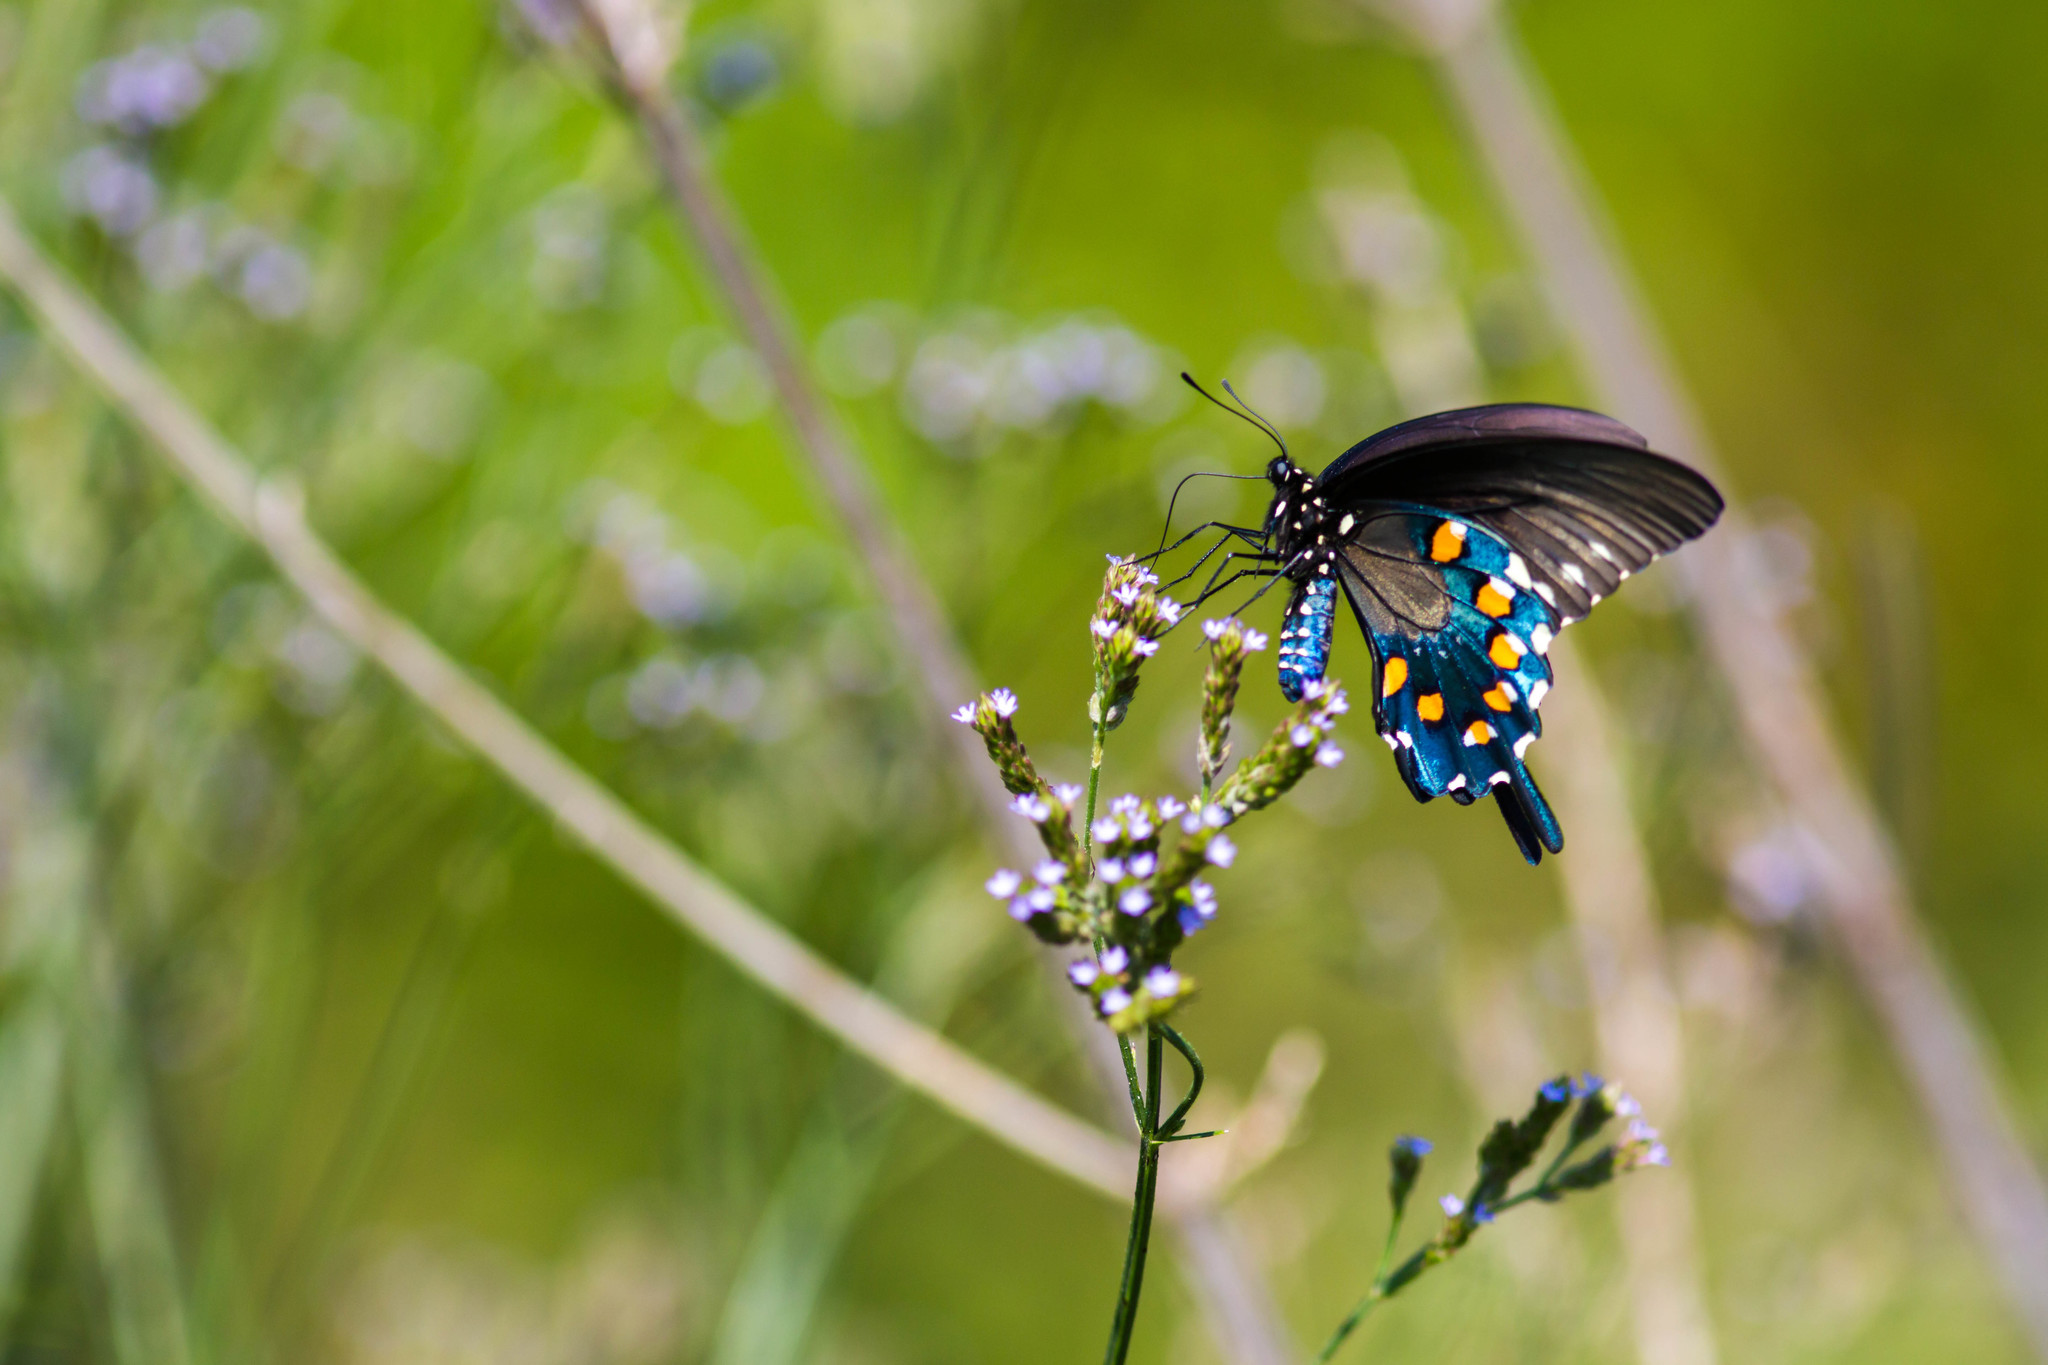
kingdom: Animalia
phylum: Arthropoda
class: Insecta
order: Lepidoptera
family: Papilionidae
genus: Battus
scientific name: Battus philenor
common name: Pipevine swallowtail
